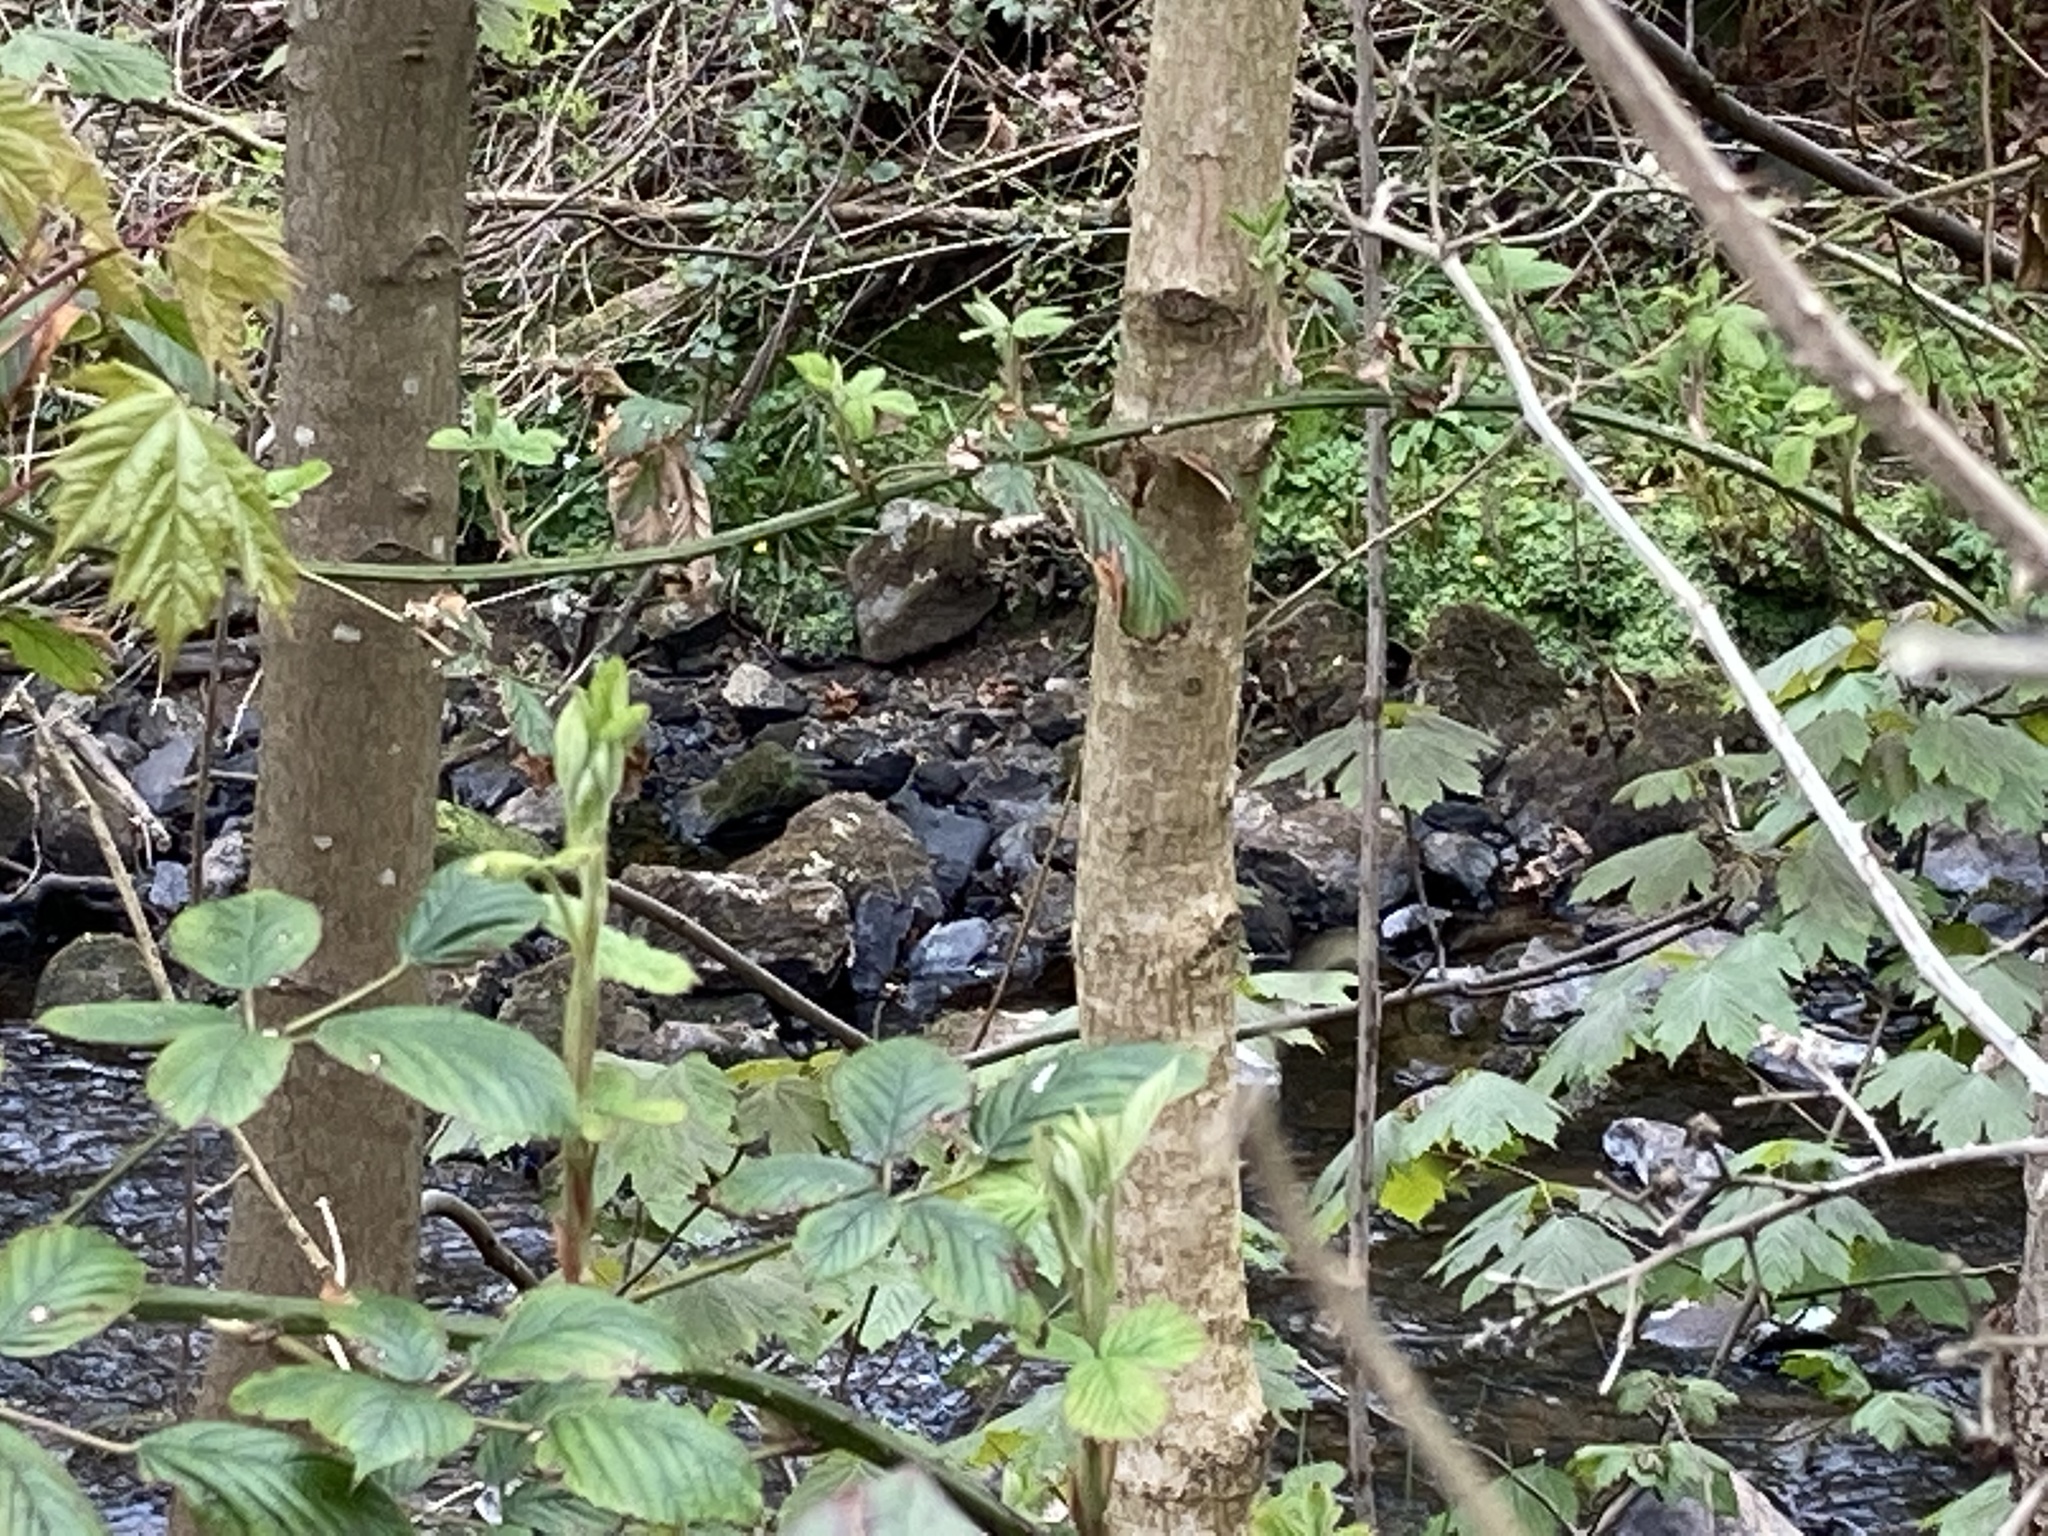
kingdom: Animalia
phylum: Chordata
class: Aves
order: Passeriformes
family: Turdidae
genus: Turdus
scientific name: Turdus merula
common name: Common blackbird
